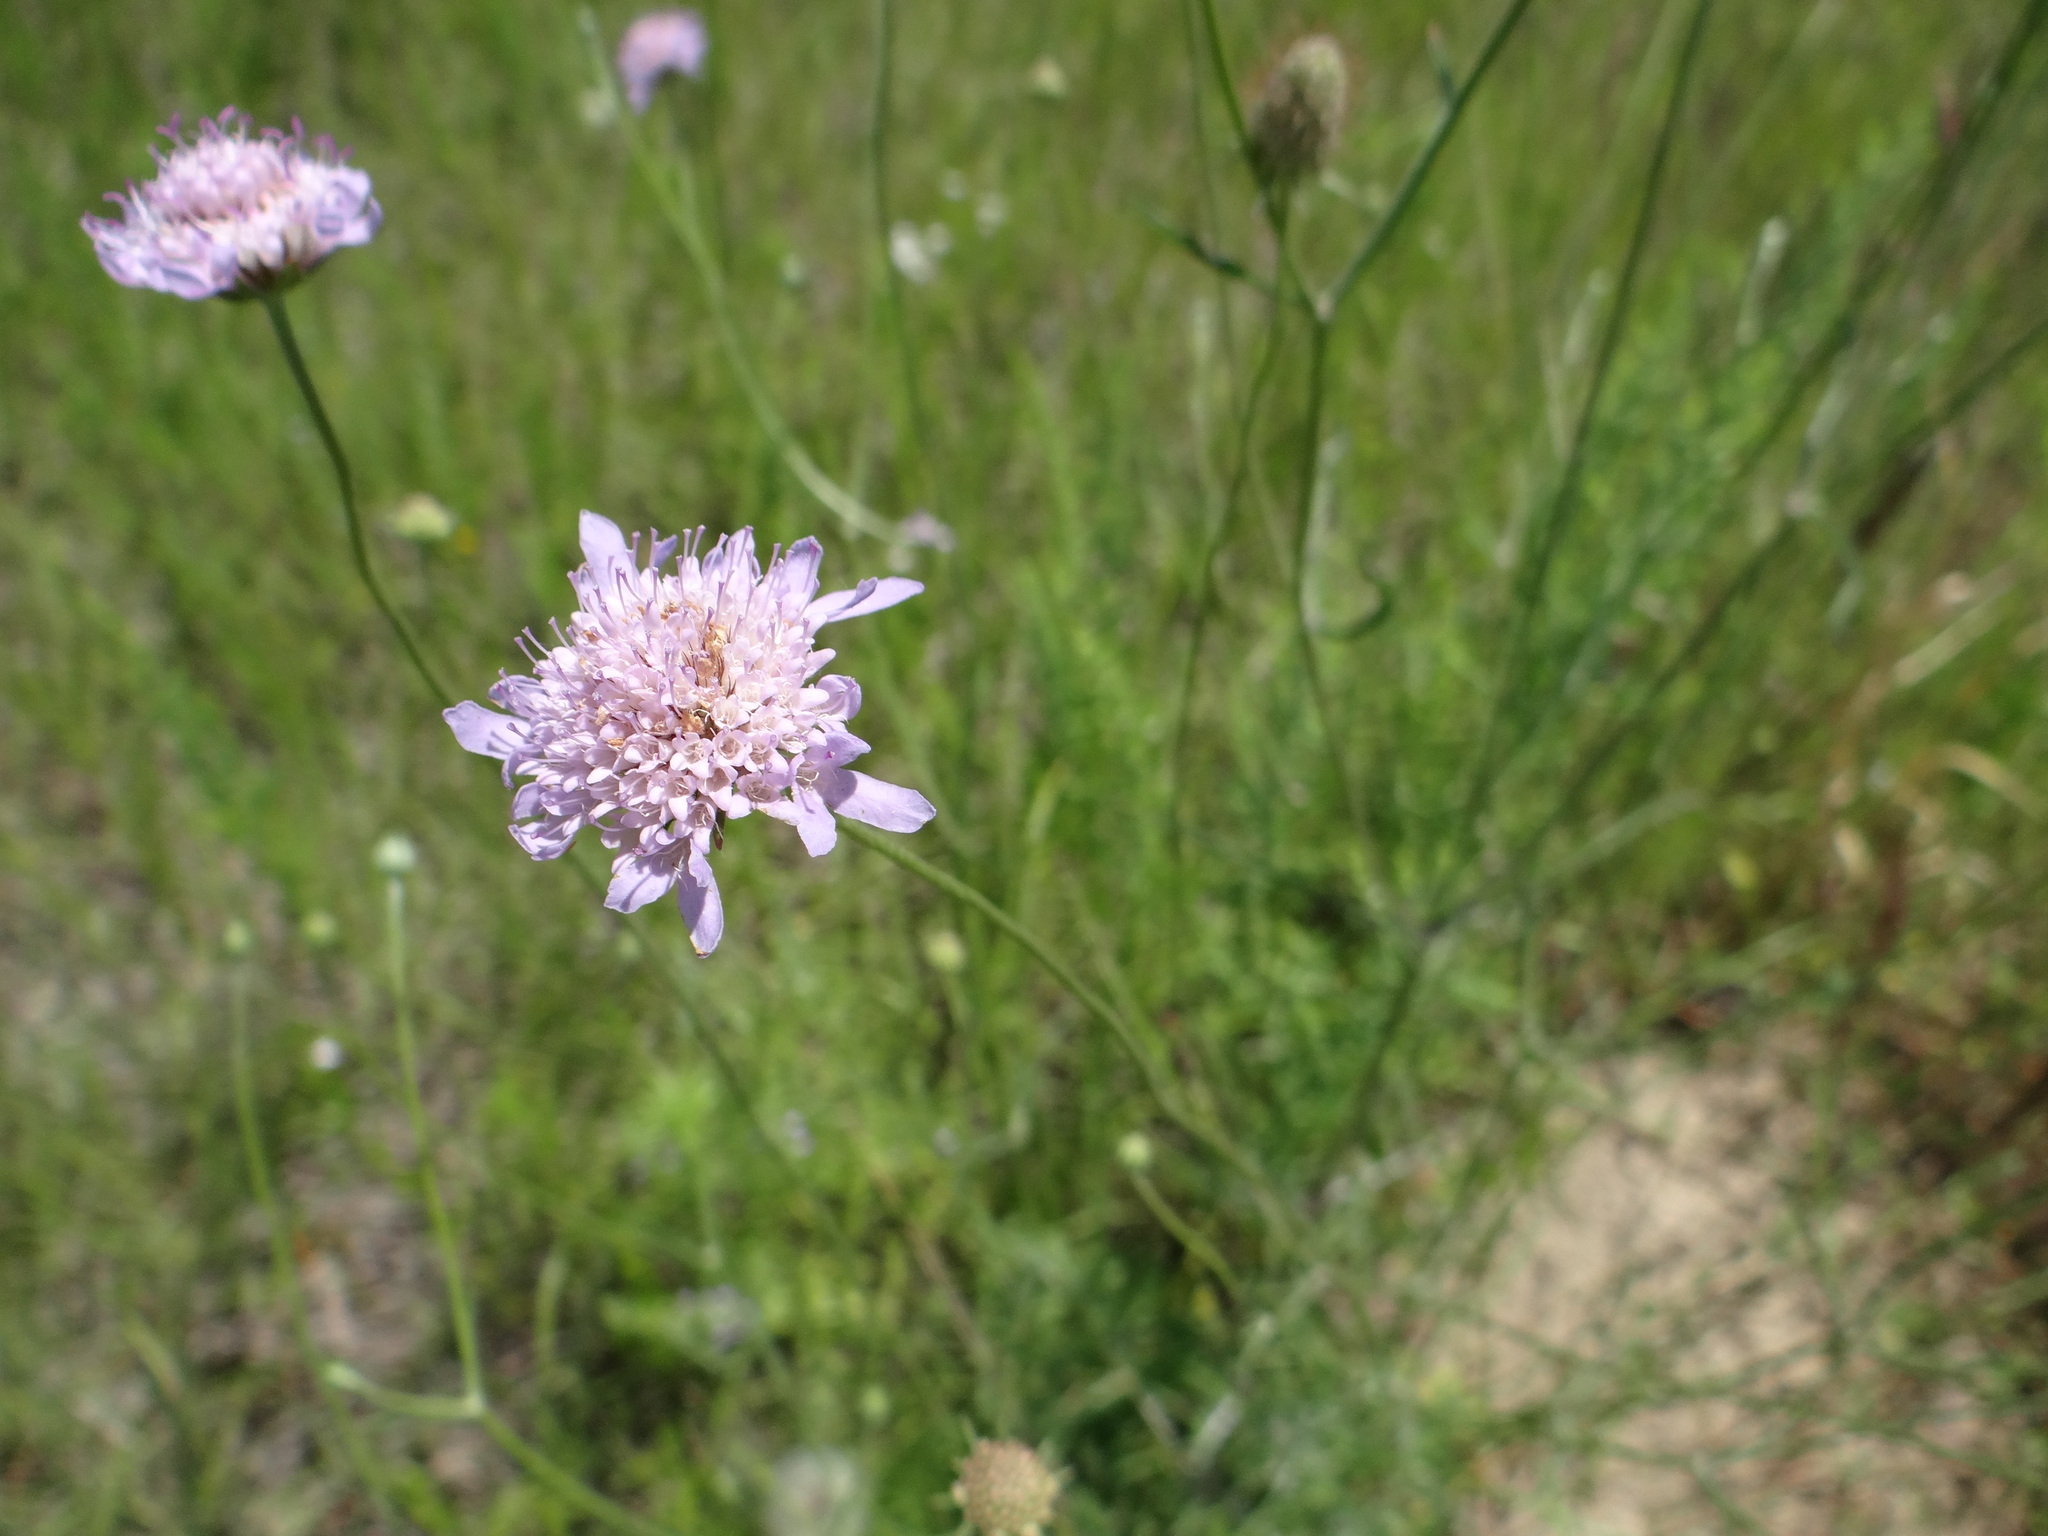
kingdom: Plantae
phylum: Tracheophyta
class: Magnoliopsida
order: Dipsacales
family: Caprifoliaceae
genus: Sixalix
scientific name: Sixalix atropurpurea
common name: Sweet scabious
